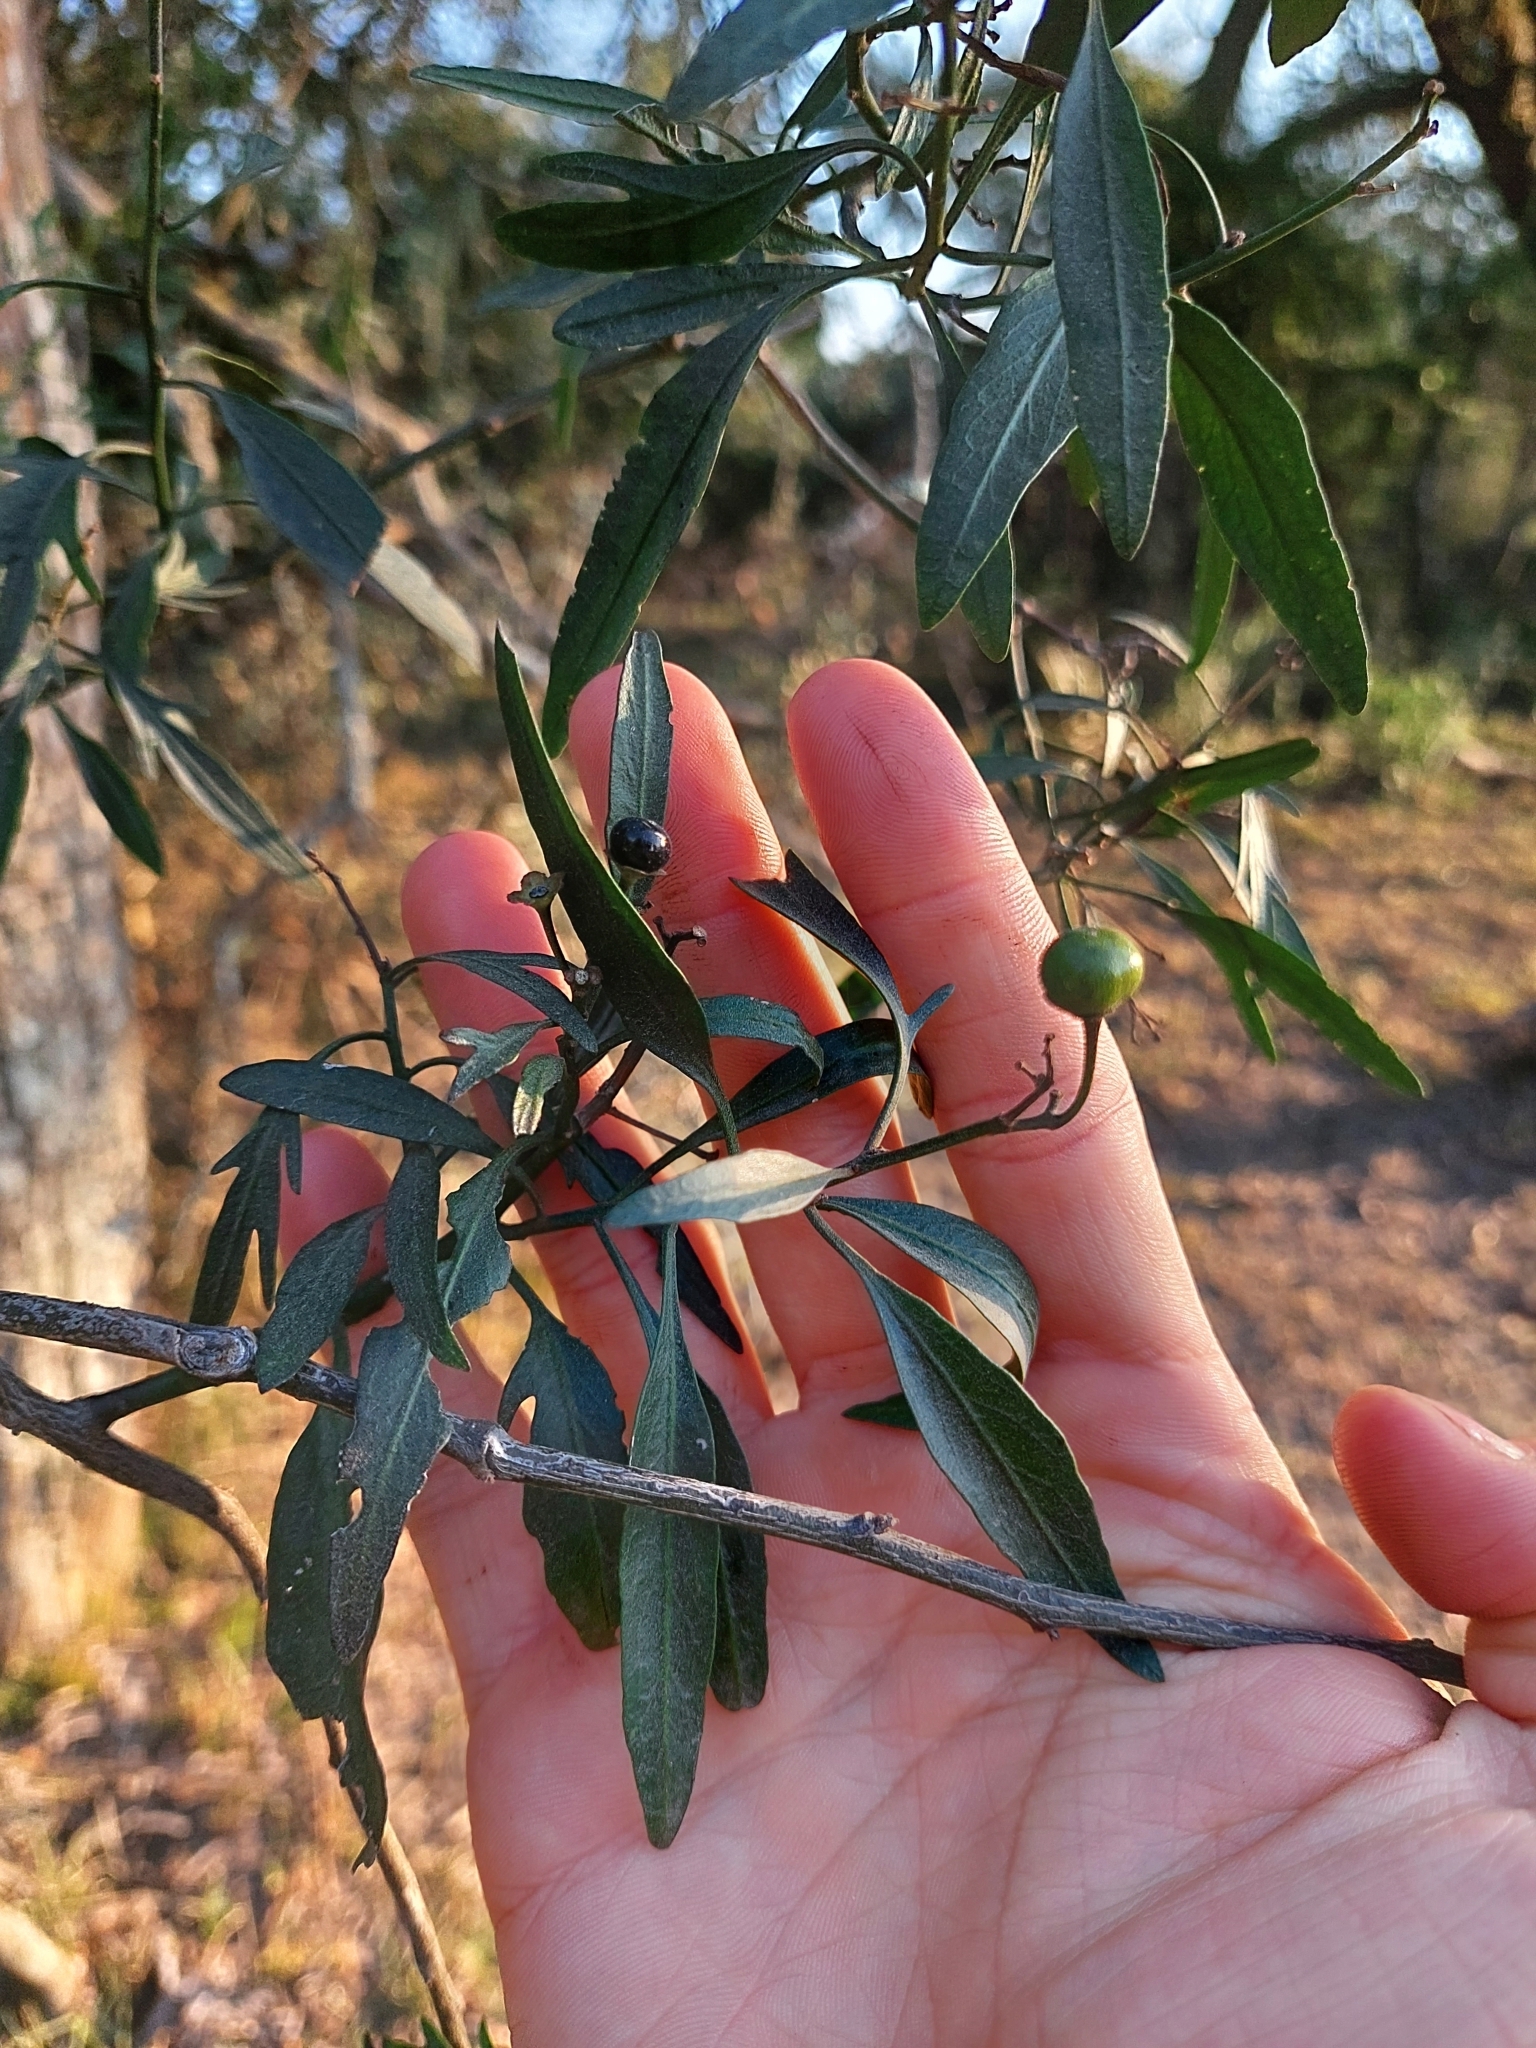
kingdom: Plantae
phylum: Tracheophyta
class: Magnoliopsida
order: Solanales
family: Solanaceae
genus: Solanum
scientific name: Solanum angustifidum
